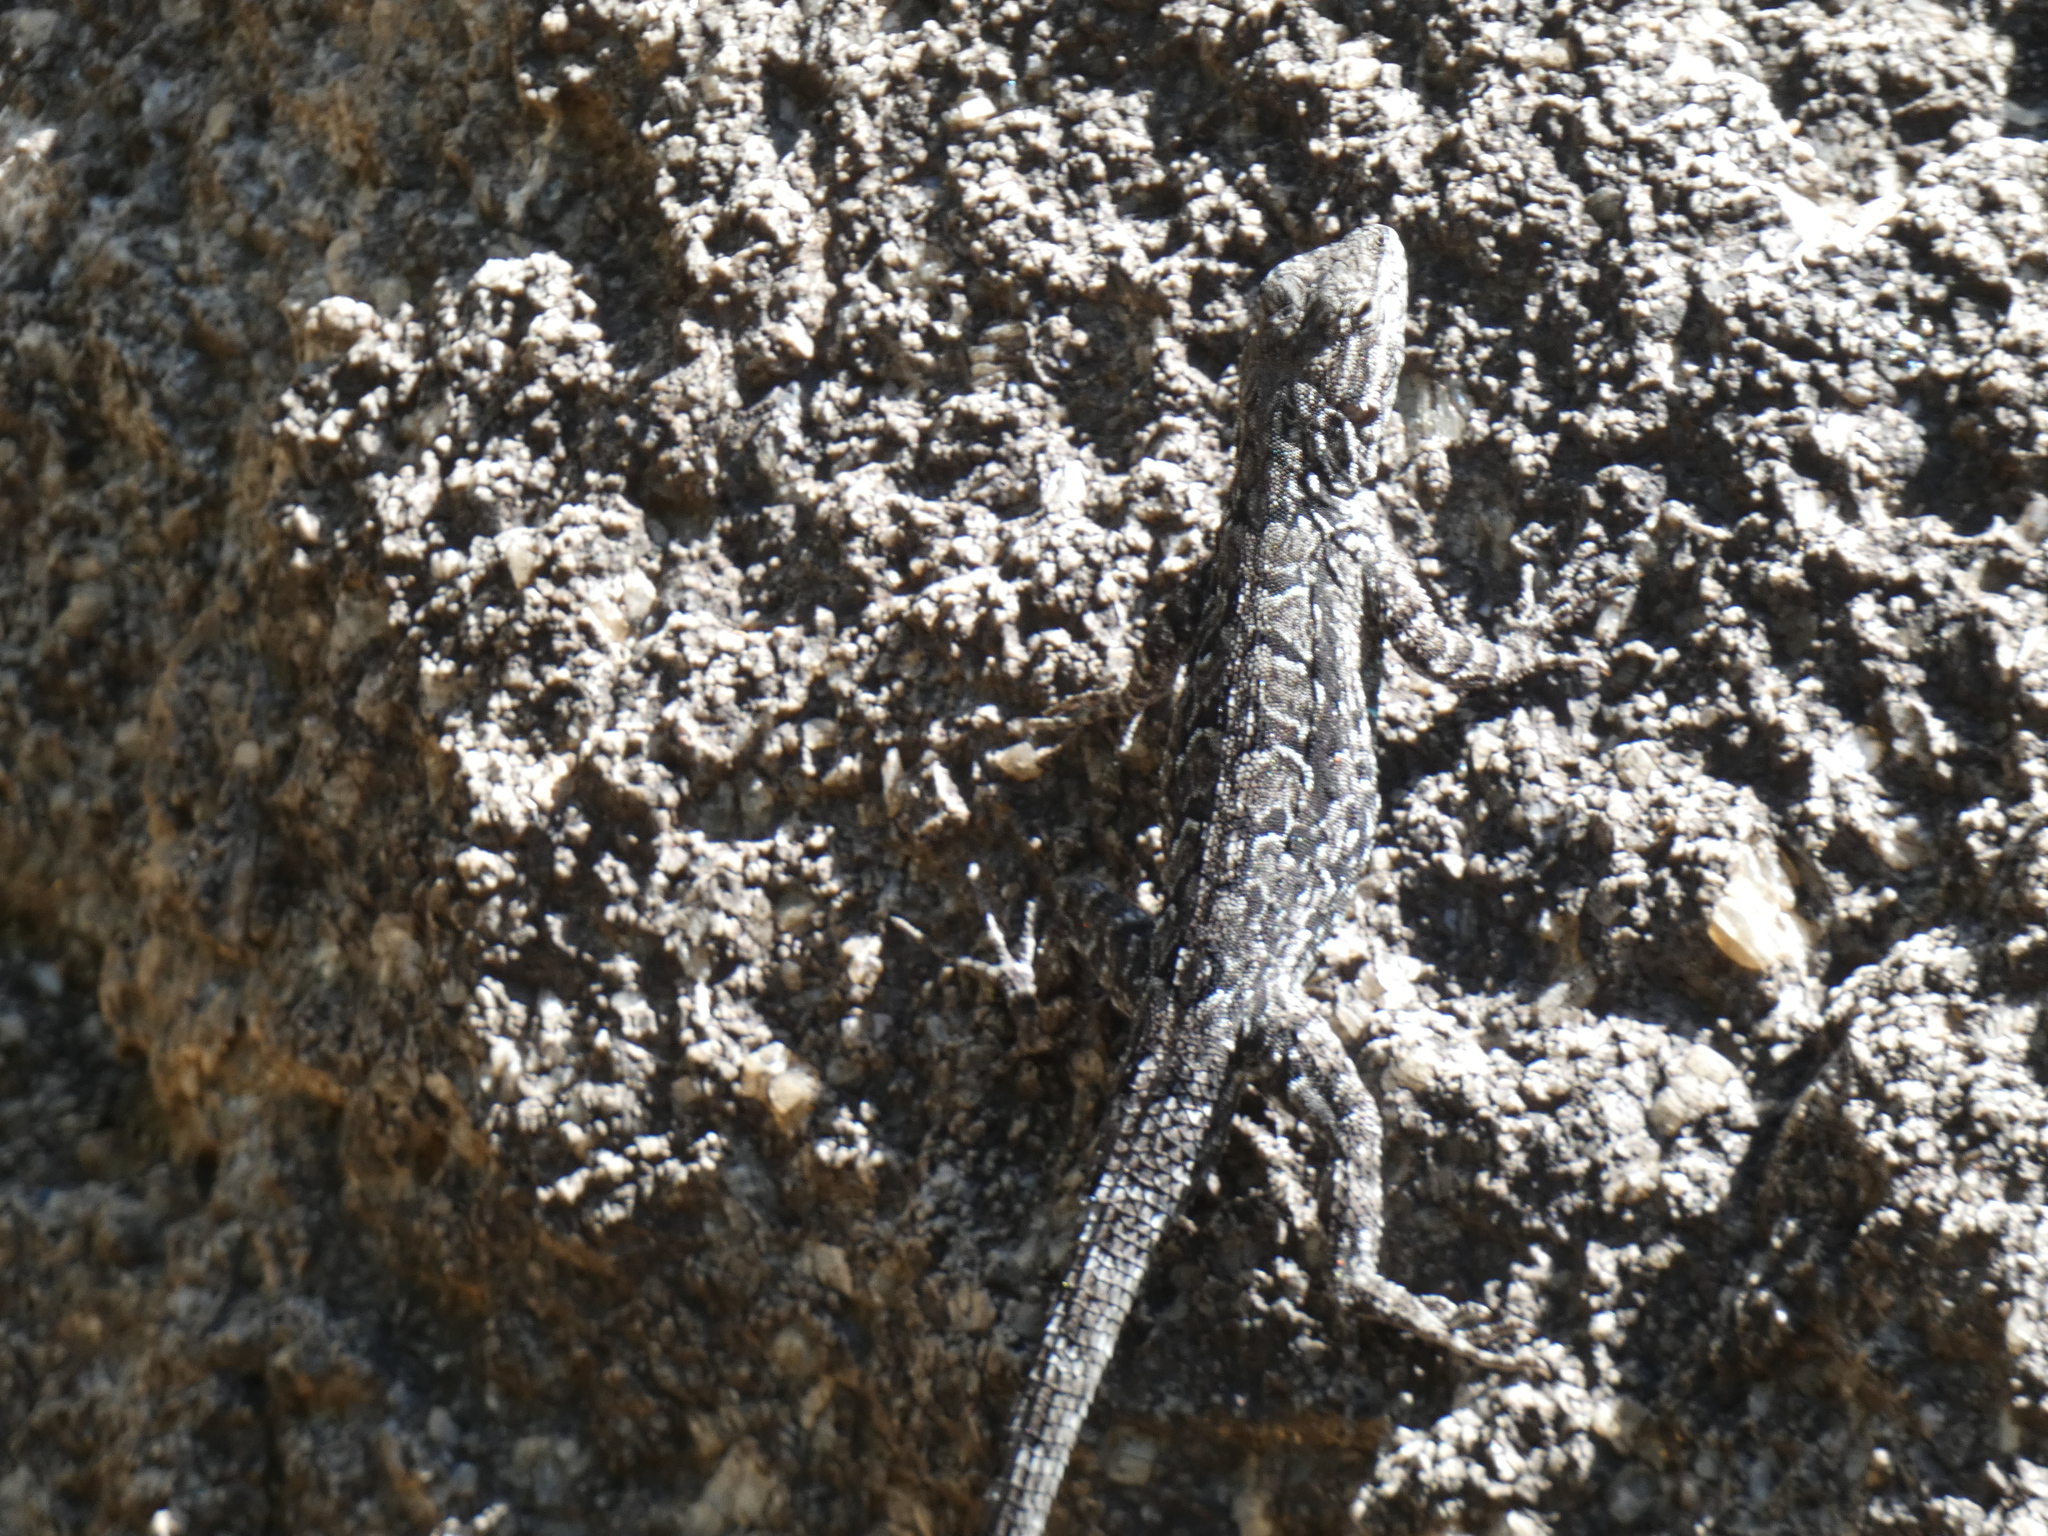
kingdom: Animalia
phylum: Chordata
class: Squamata
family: Phrynosomatidae
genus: Urosaurus
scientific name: Urosaurus ornatus
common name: Ornate tree lizard
